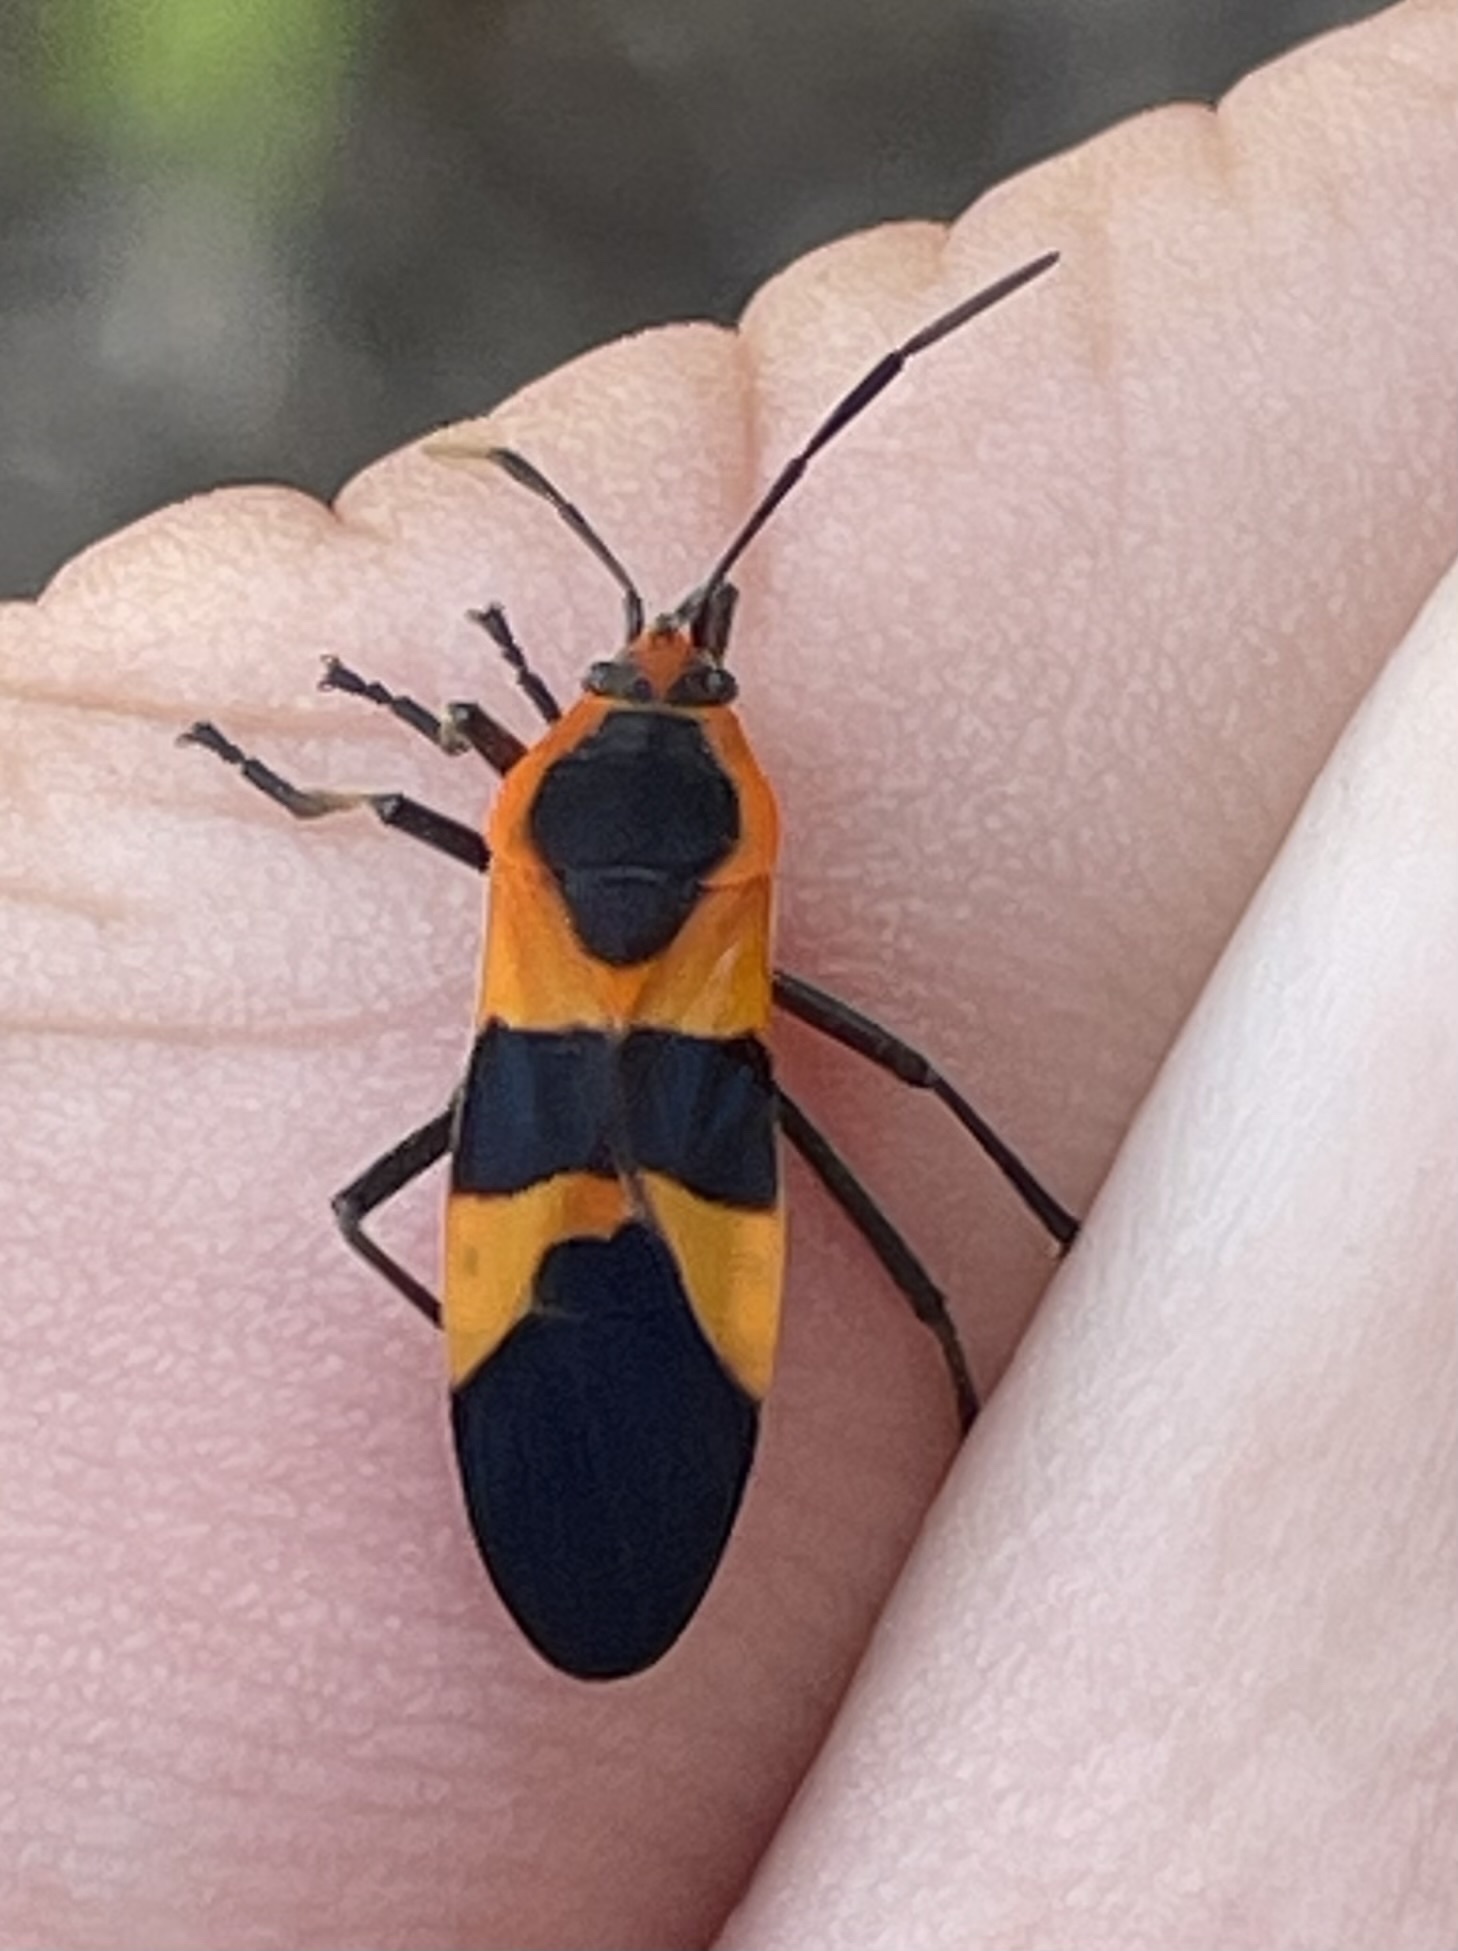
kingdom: Animalia
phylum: Arthropoda
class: Insecta
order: Hemiptera
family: Lygaeidae
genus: Oncopeltus
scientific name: Oncopeltus fasciatus
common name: Large milkweed bug
